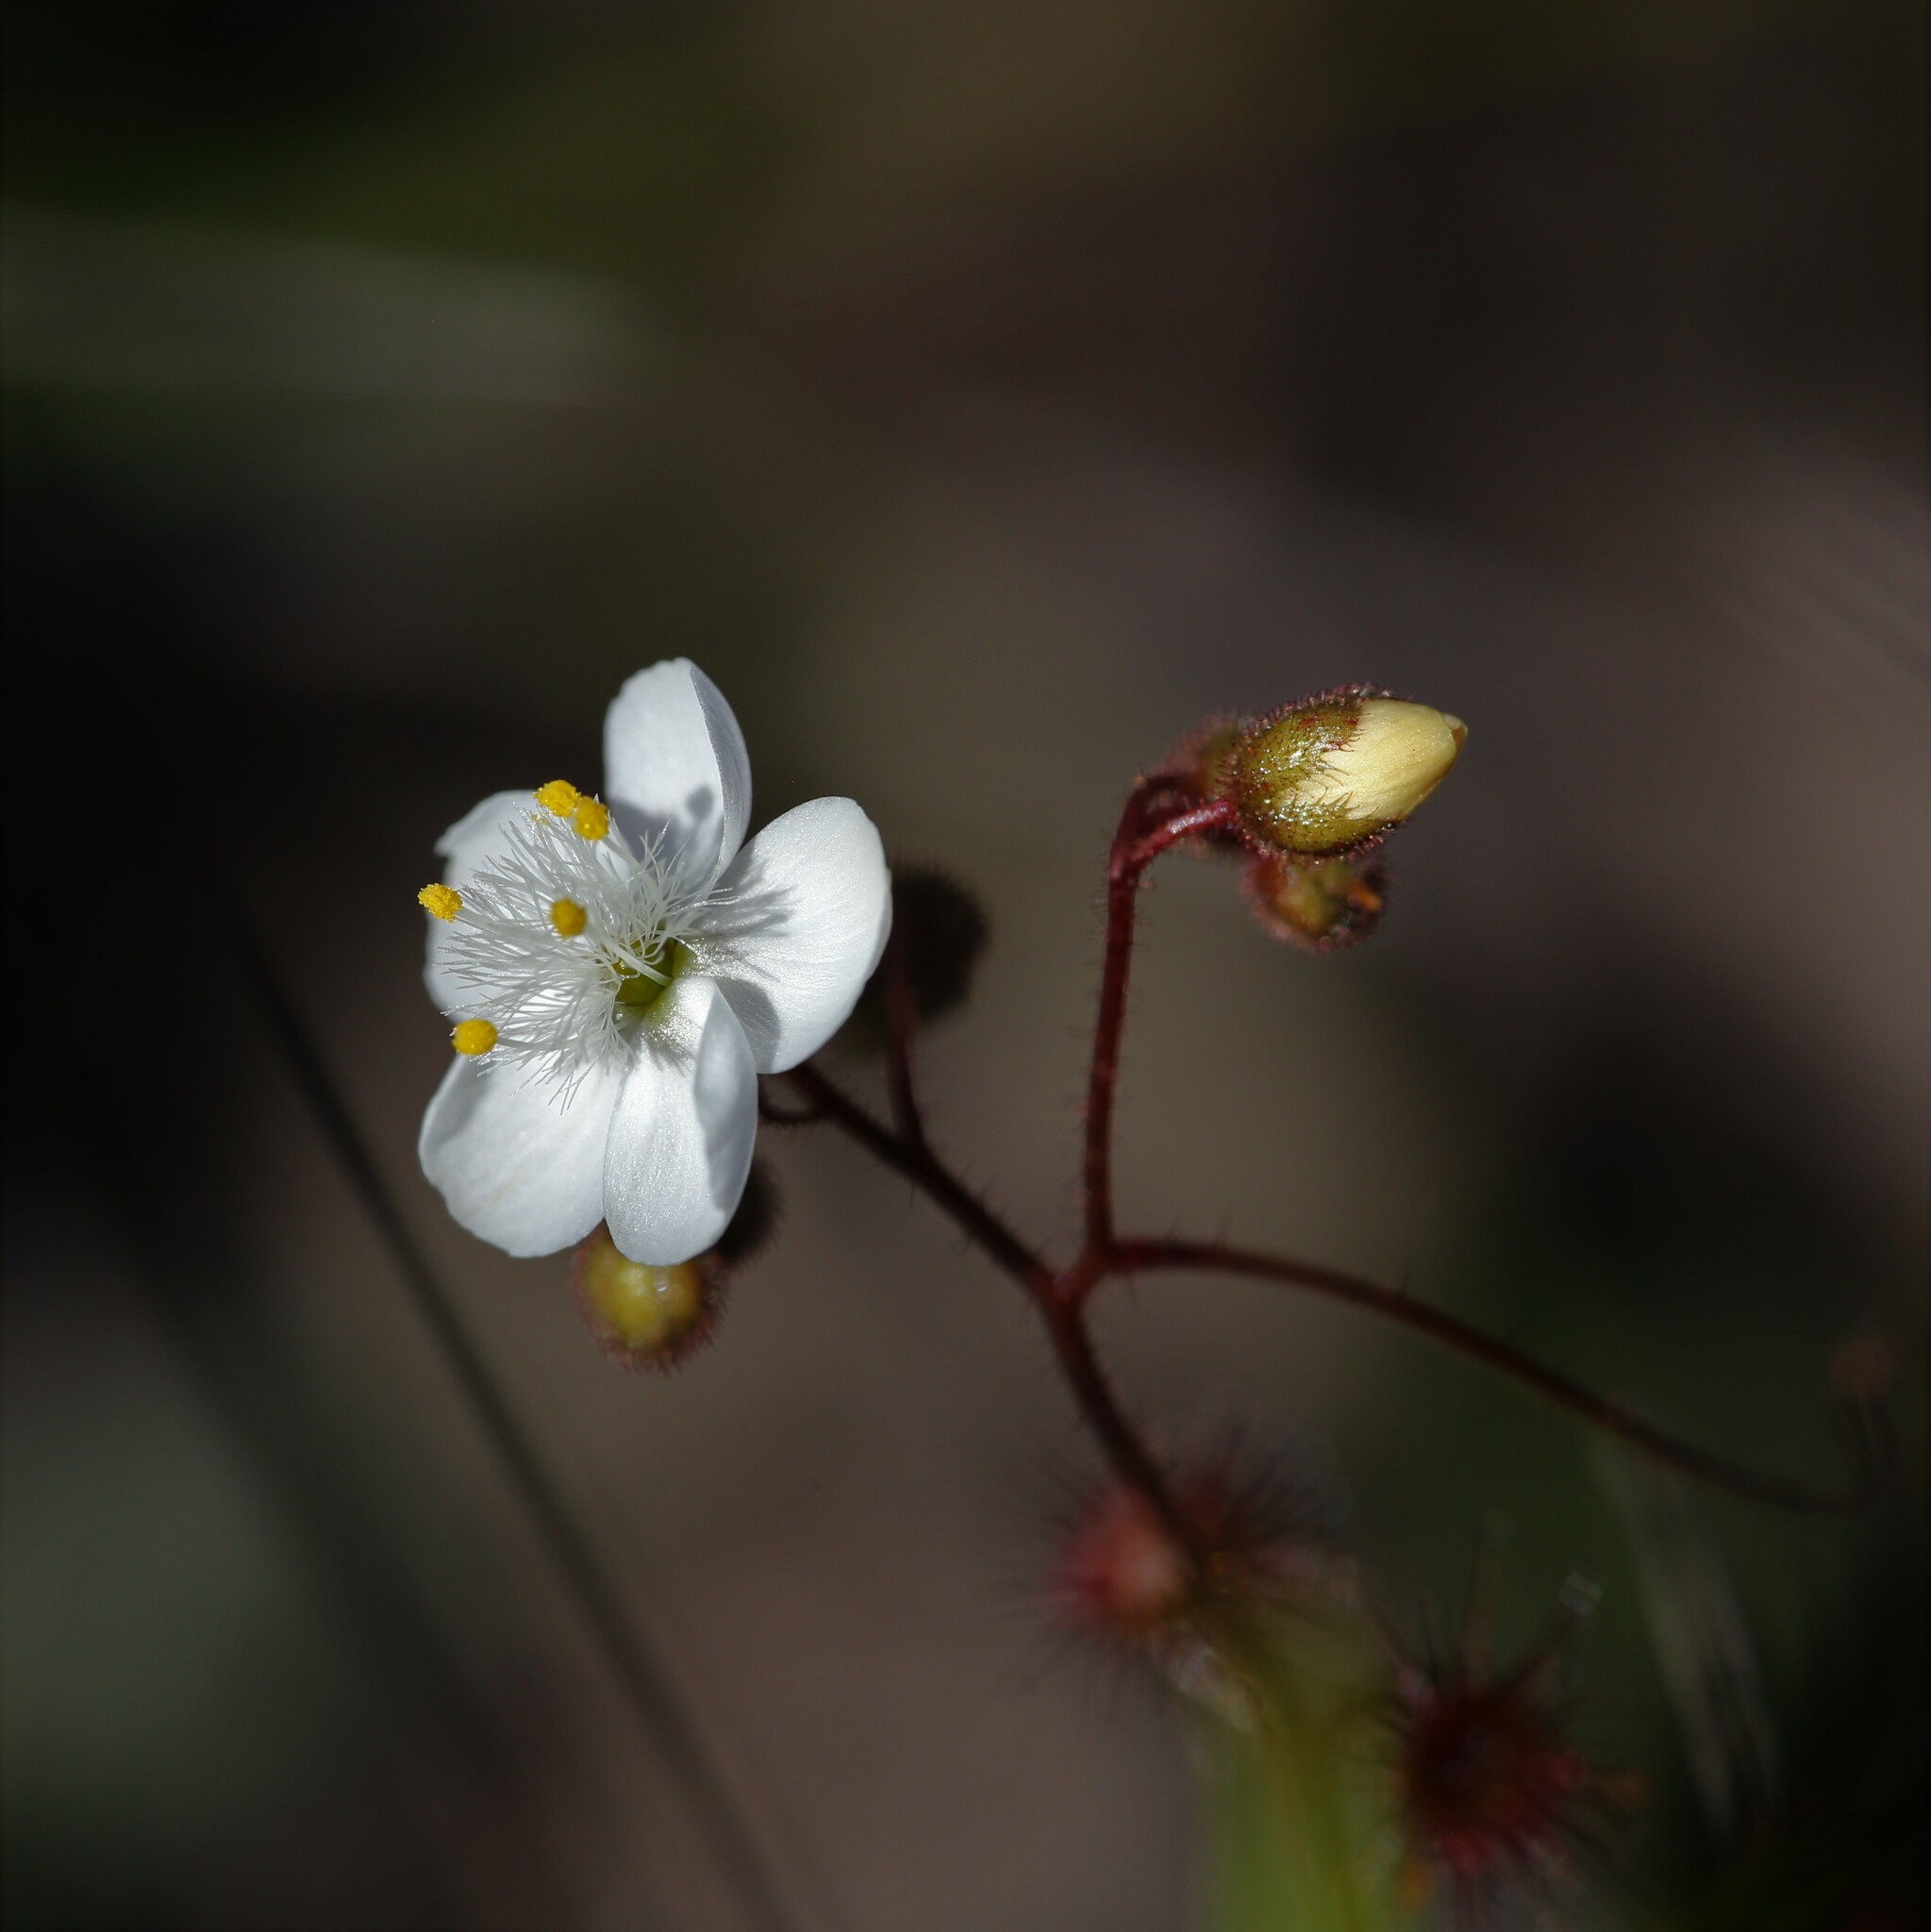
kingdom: Plantae
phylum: Tracheophyta
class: Magnoliopsida
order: Caryophyllales
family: Droseraceae
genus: Drosera
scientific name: Drosera macrantha
